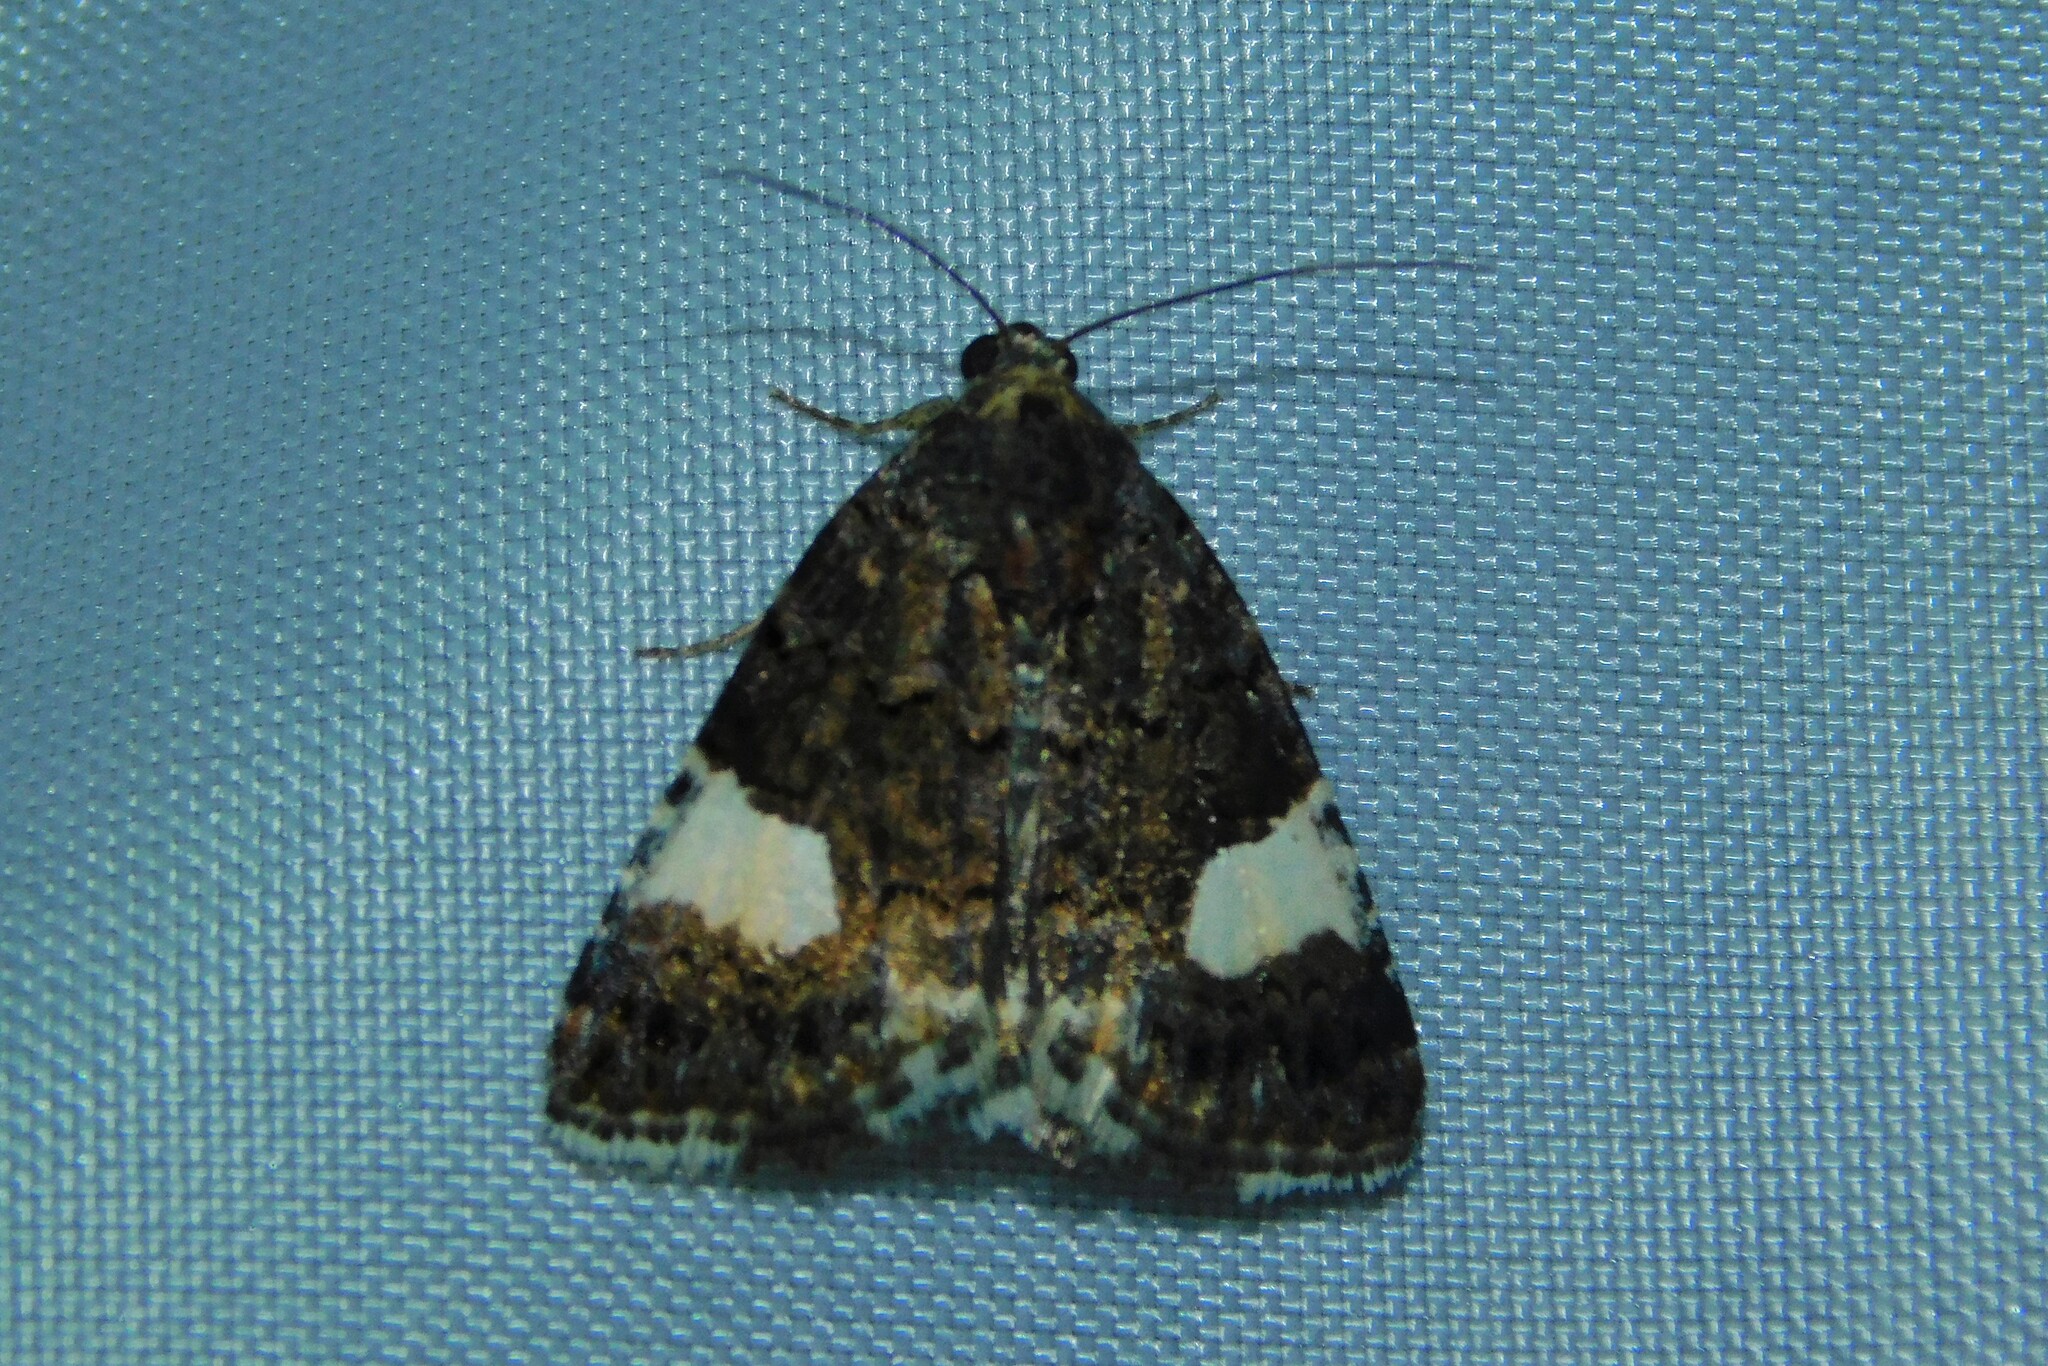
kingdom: Animalia
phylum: Arthropoda
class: Insecta
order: Lepidoptera
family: Erebidae
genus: Tyta
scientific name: Tyta luctuosa
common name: Four-spotted
